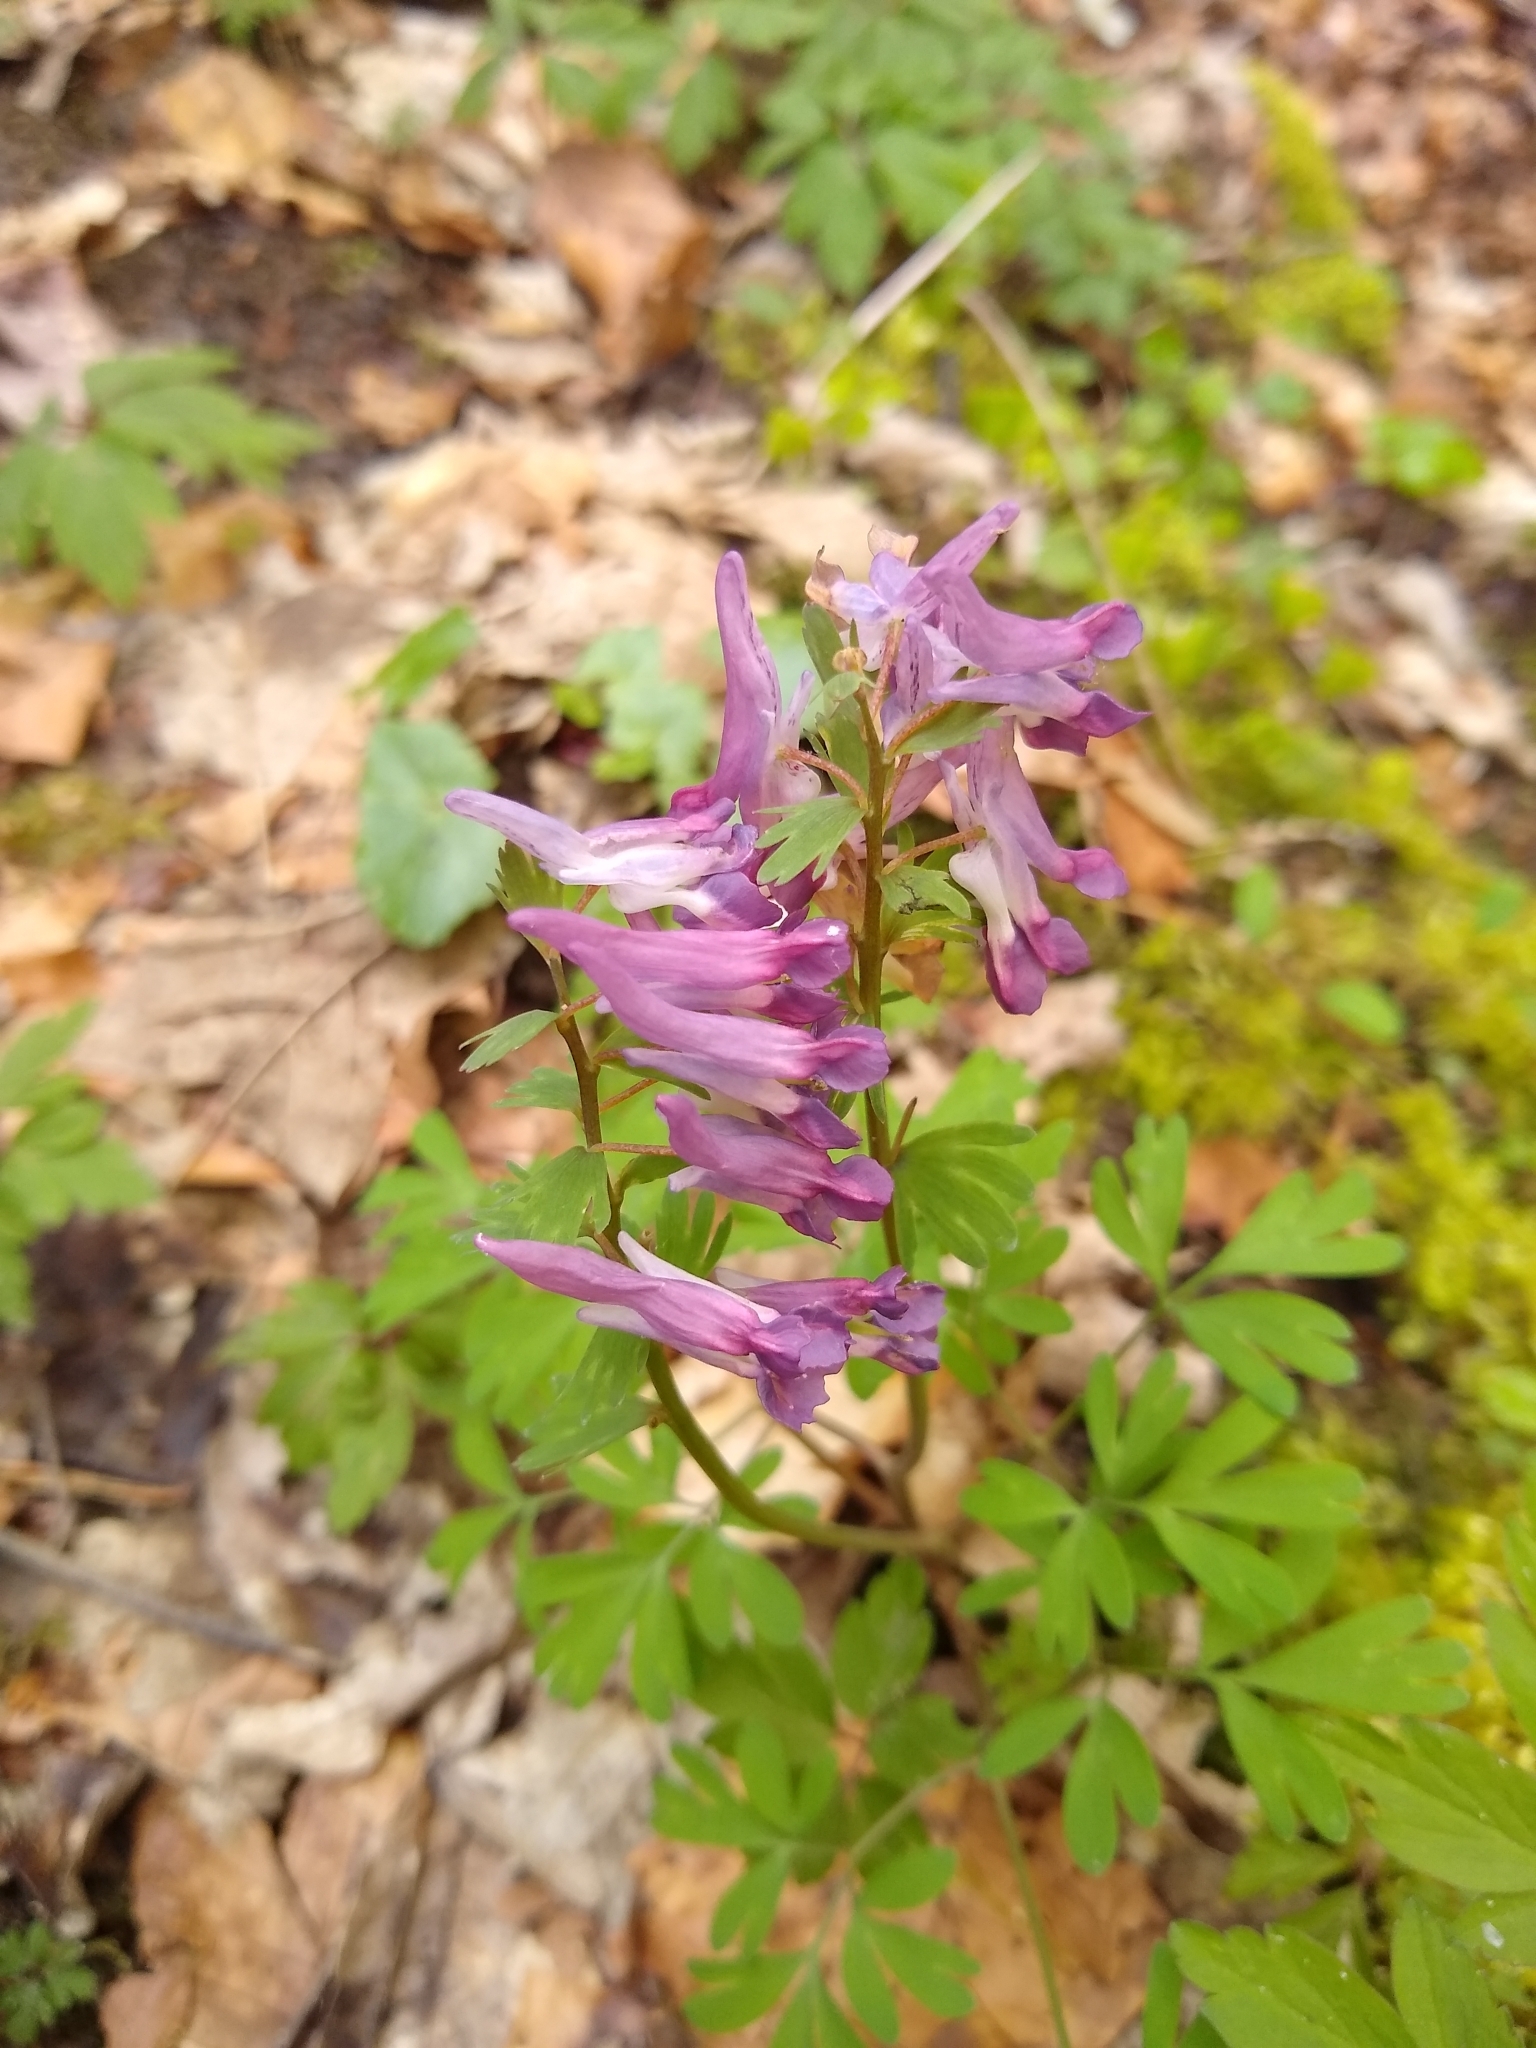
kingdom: Plantae
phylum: Tracheophyta
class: Magnoliopsida
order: Ranunculales
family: Papaveraceae
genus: Corydalis
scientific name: Corydalis solida
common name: Bird-in-a-bush
